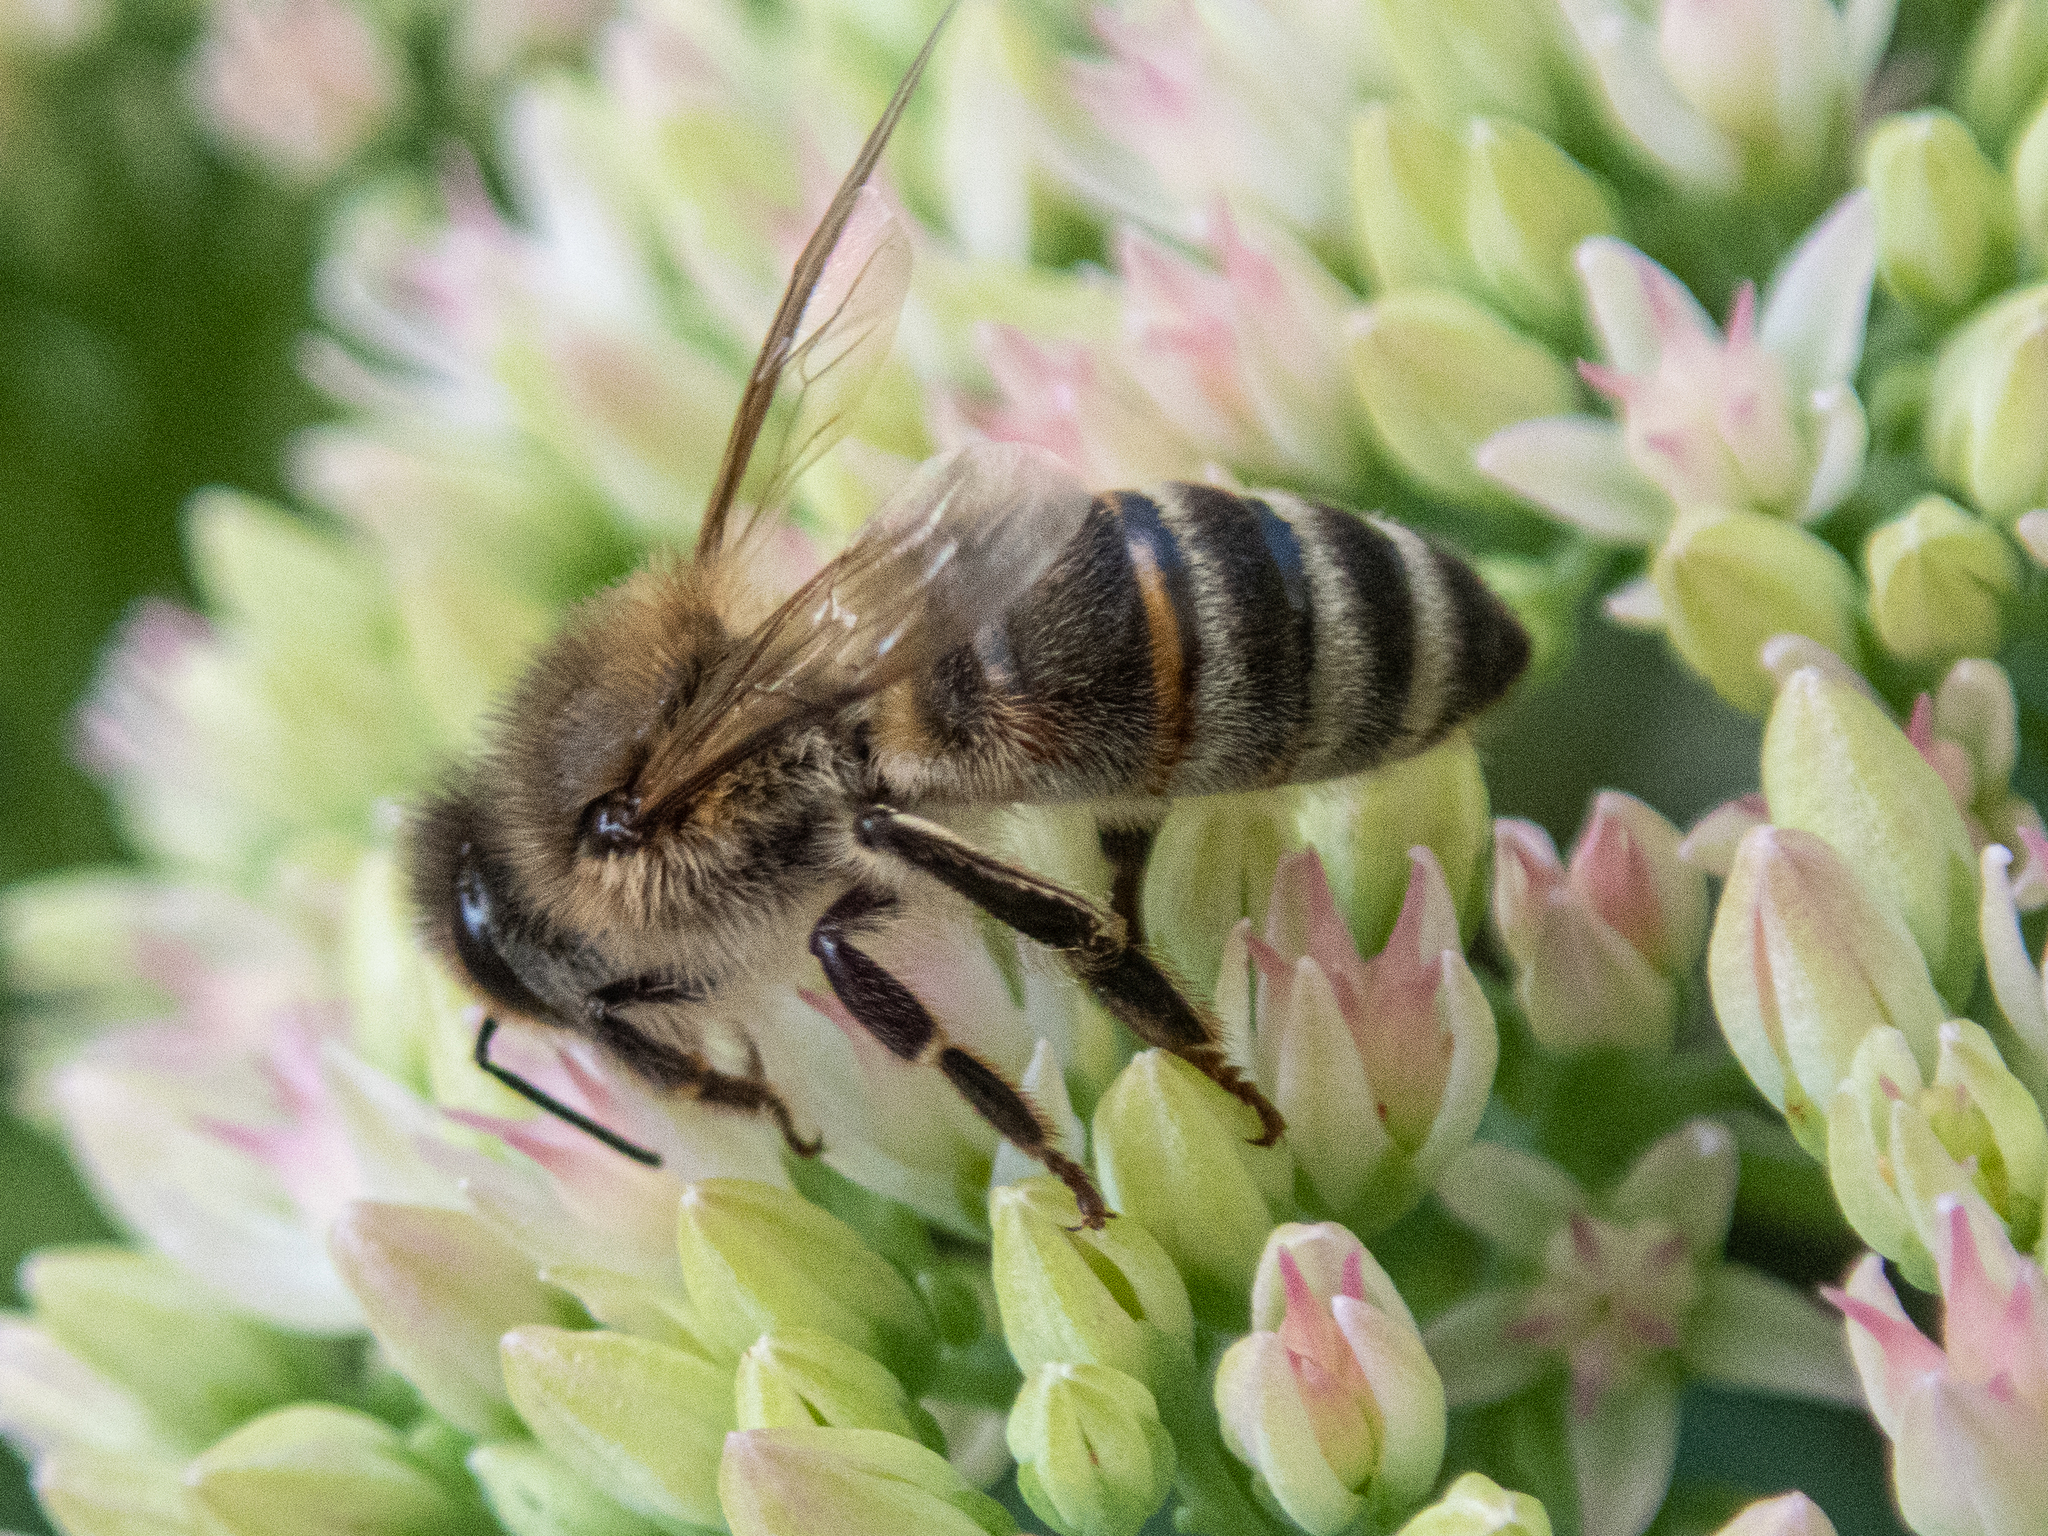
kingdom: Animalia
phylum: Arthropoda
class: Insecta
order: Hymenoptera
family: Apidae
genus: Apis
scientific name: Apis mellifera
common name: Honey bee
